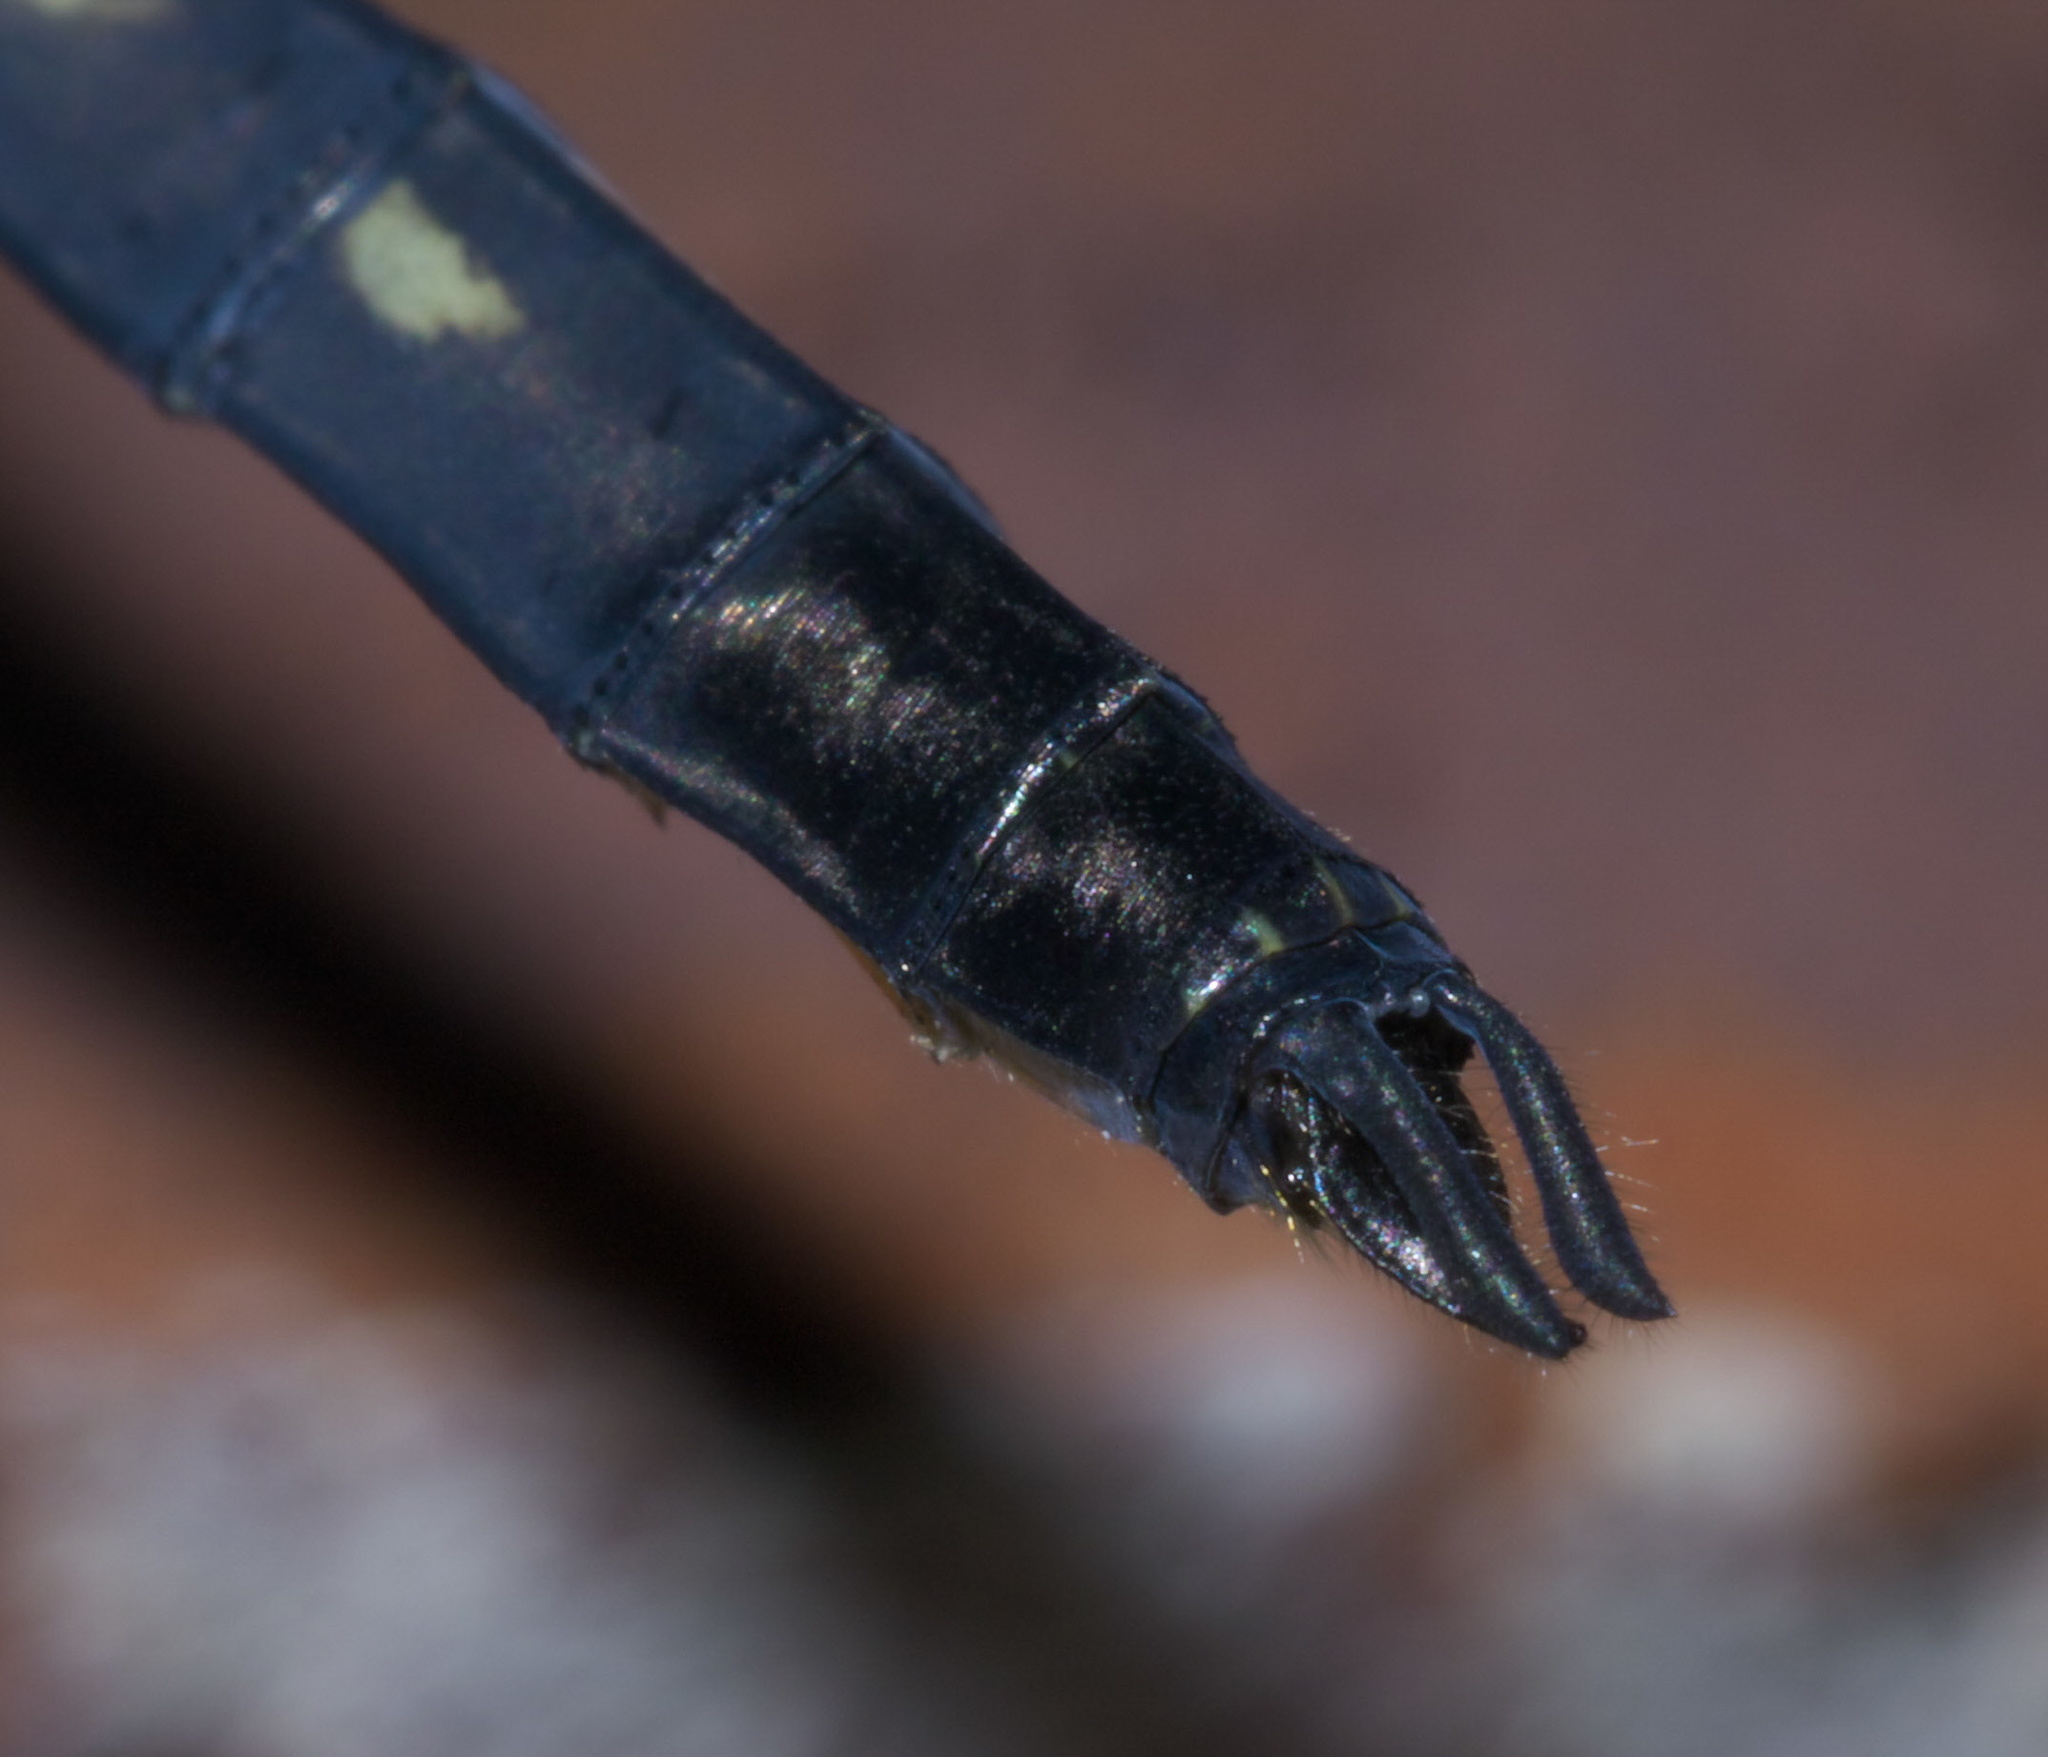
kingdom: Animalia
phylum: Arthropoda
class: Insecta
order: Odonata
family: Libellulidae
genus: Pachydiplax
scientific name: Pachydiplax longipennis
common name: Blue dasher
